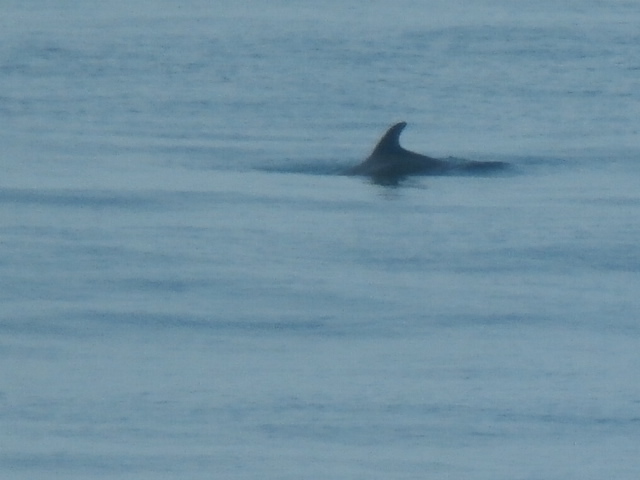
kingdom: Animalia
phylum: Chordata
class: Mammalia
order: Cetacea
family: Delphinidae
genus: Tursiops
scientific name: Tursiops truncatus
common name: Bottlenose dolphin
